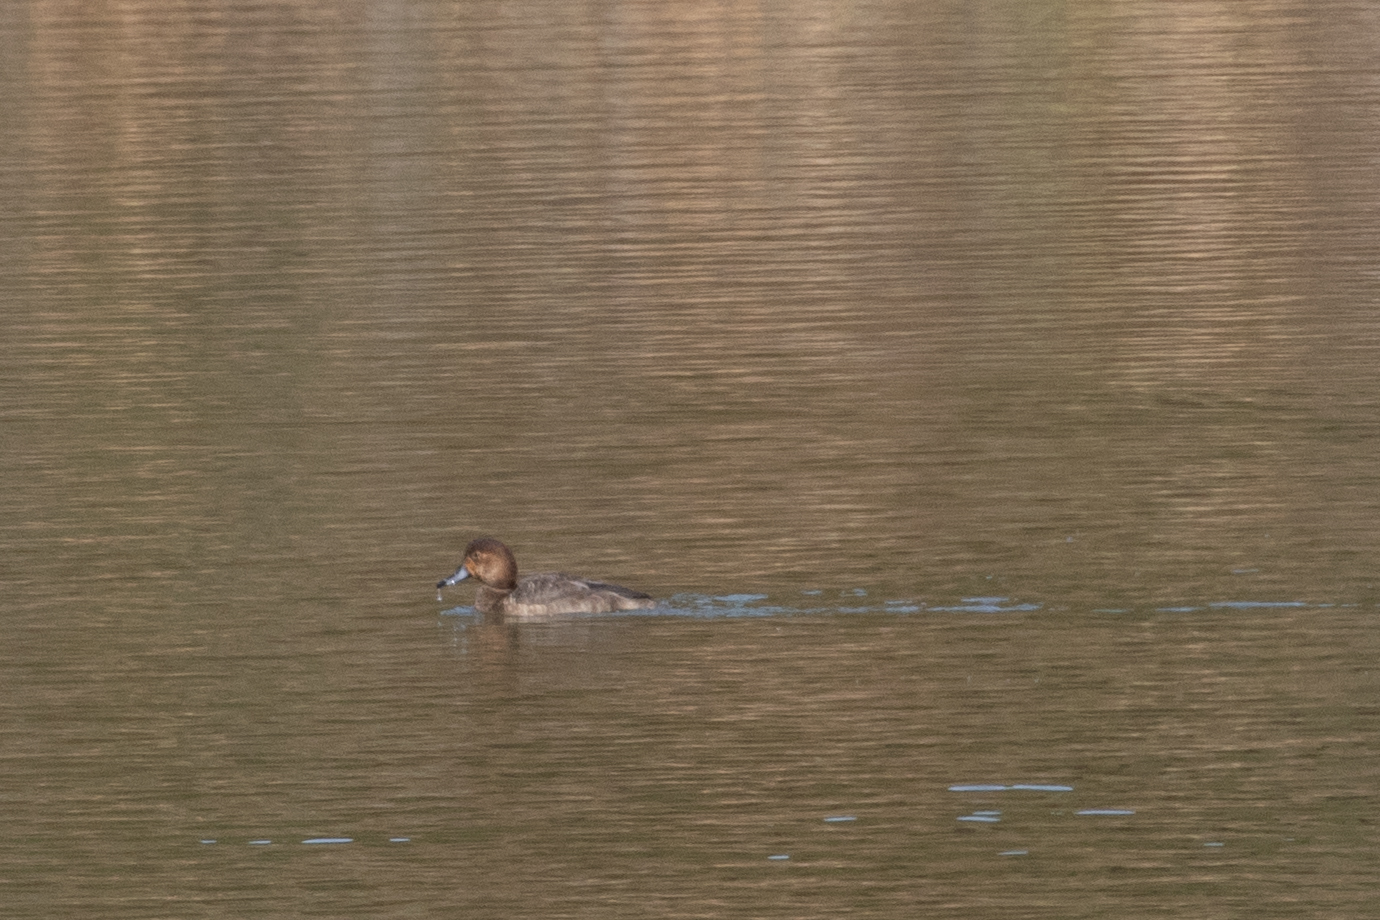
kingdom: Animalia
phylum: Chordata
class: Aves
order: Anseriformes
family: Anatidae
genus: Aythya
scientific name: Aythya americana
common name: Redhead
